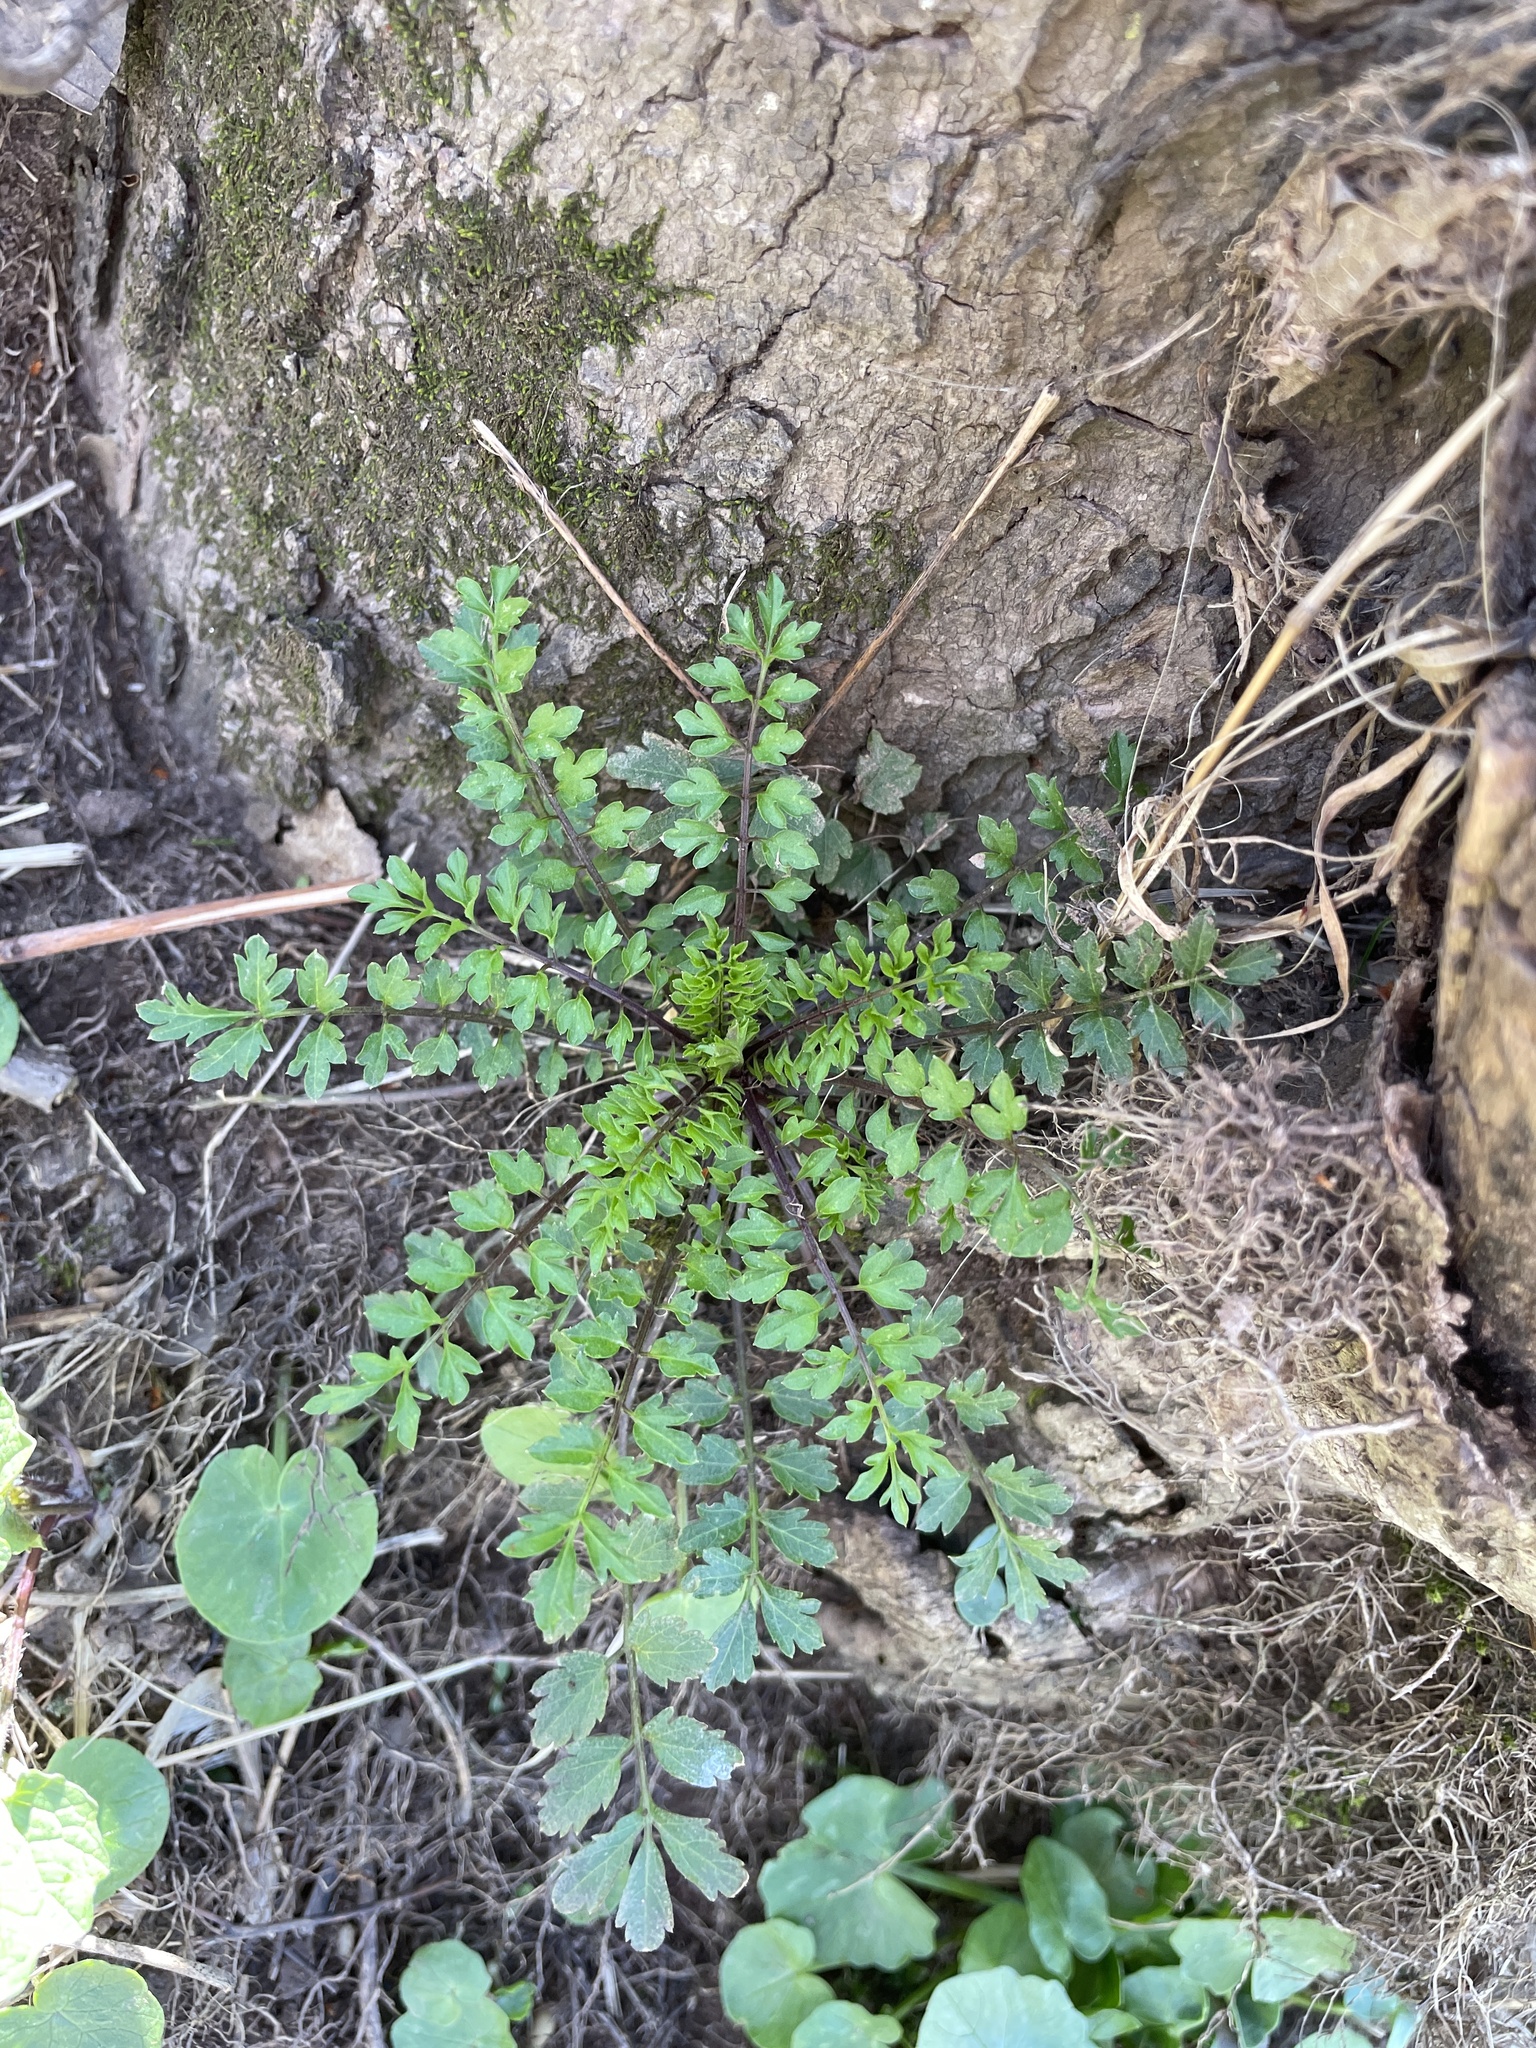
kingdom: Plantae
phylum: Tracheophyta
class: Magnoliopsida
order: Brassicales
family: Brassicaceae
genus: Cardamine
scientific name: Cardamine impatiens
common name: Narrow-leaved bitter-cress
